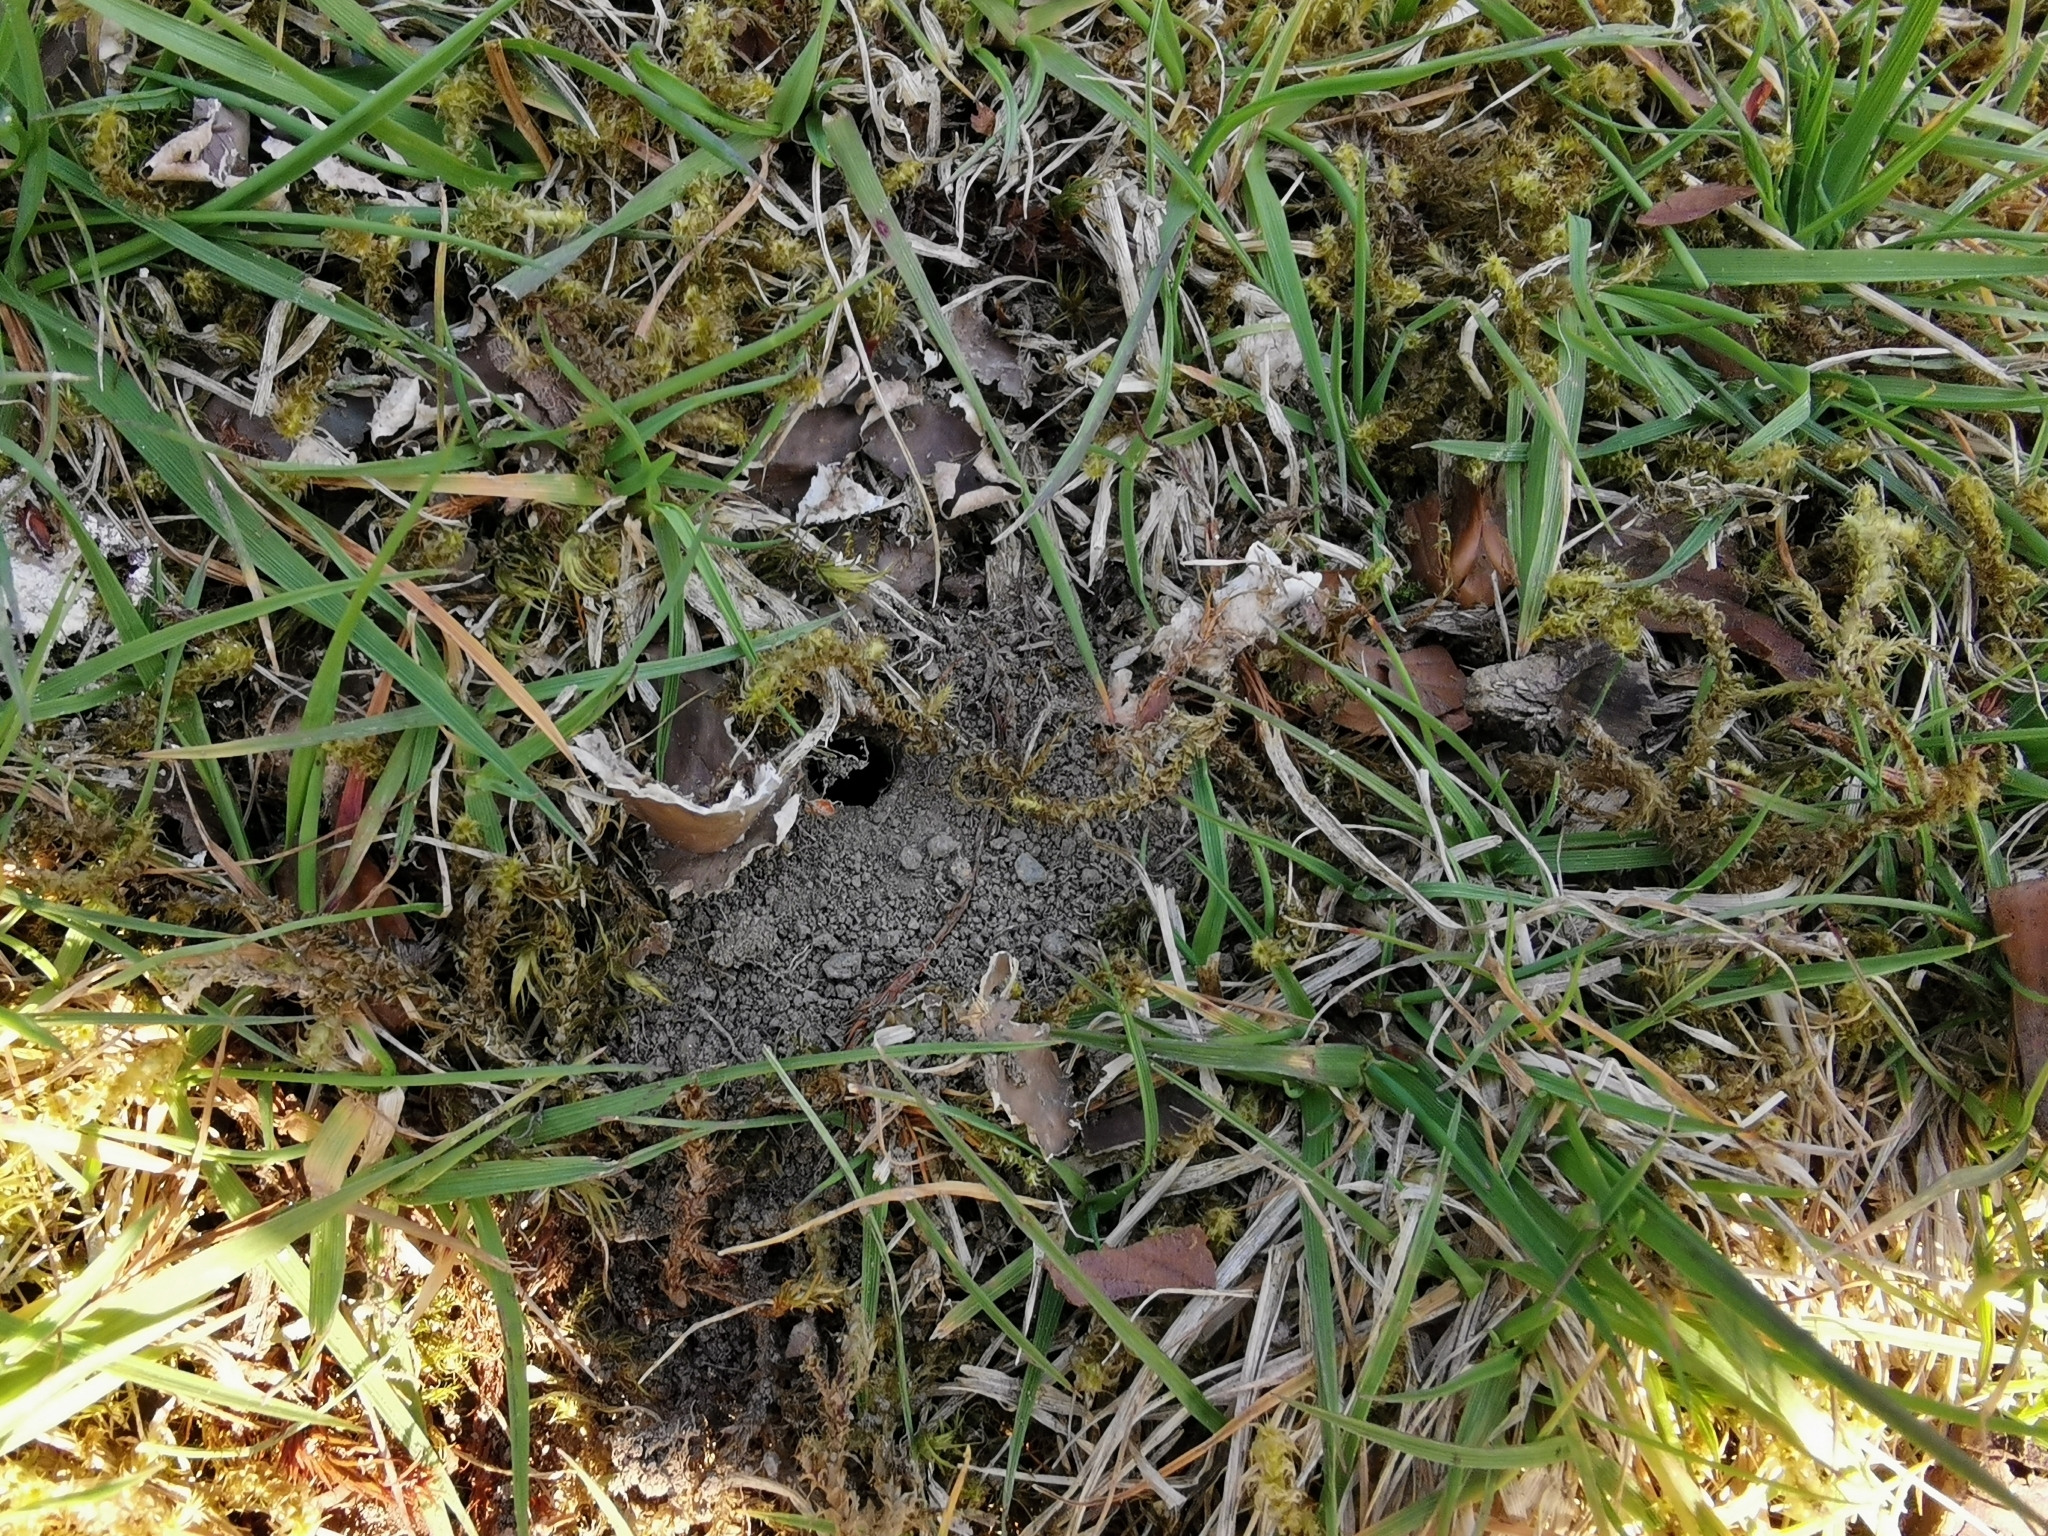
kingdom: Animalia
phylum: Arthropoda
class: Insecta
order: Hymenoptera
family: Andrenidae
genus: Andrena
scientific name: Andrena cineraria
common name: Ashy mining bee
